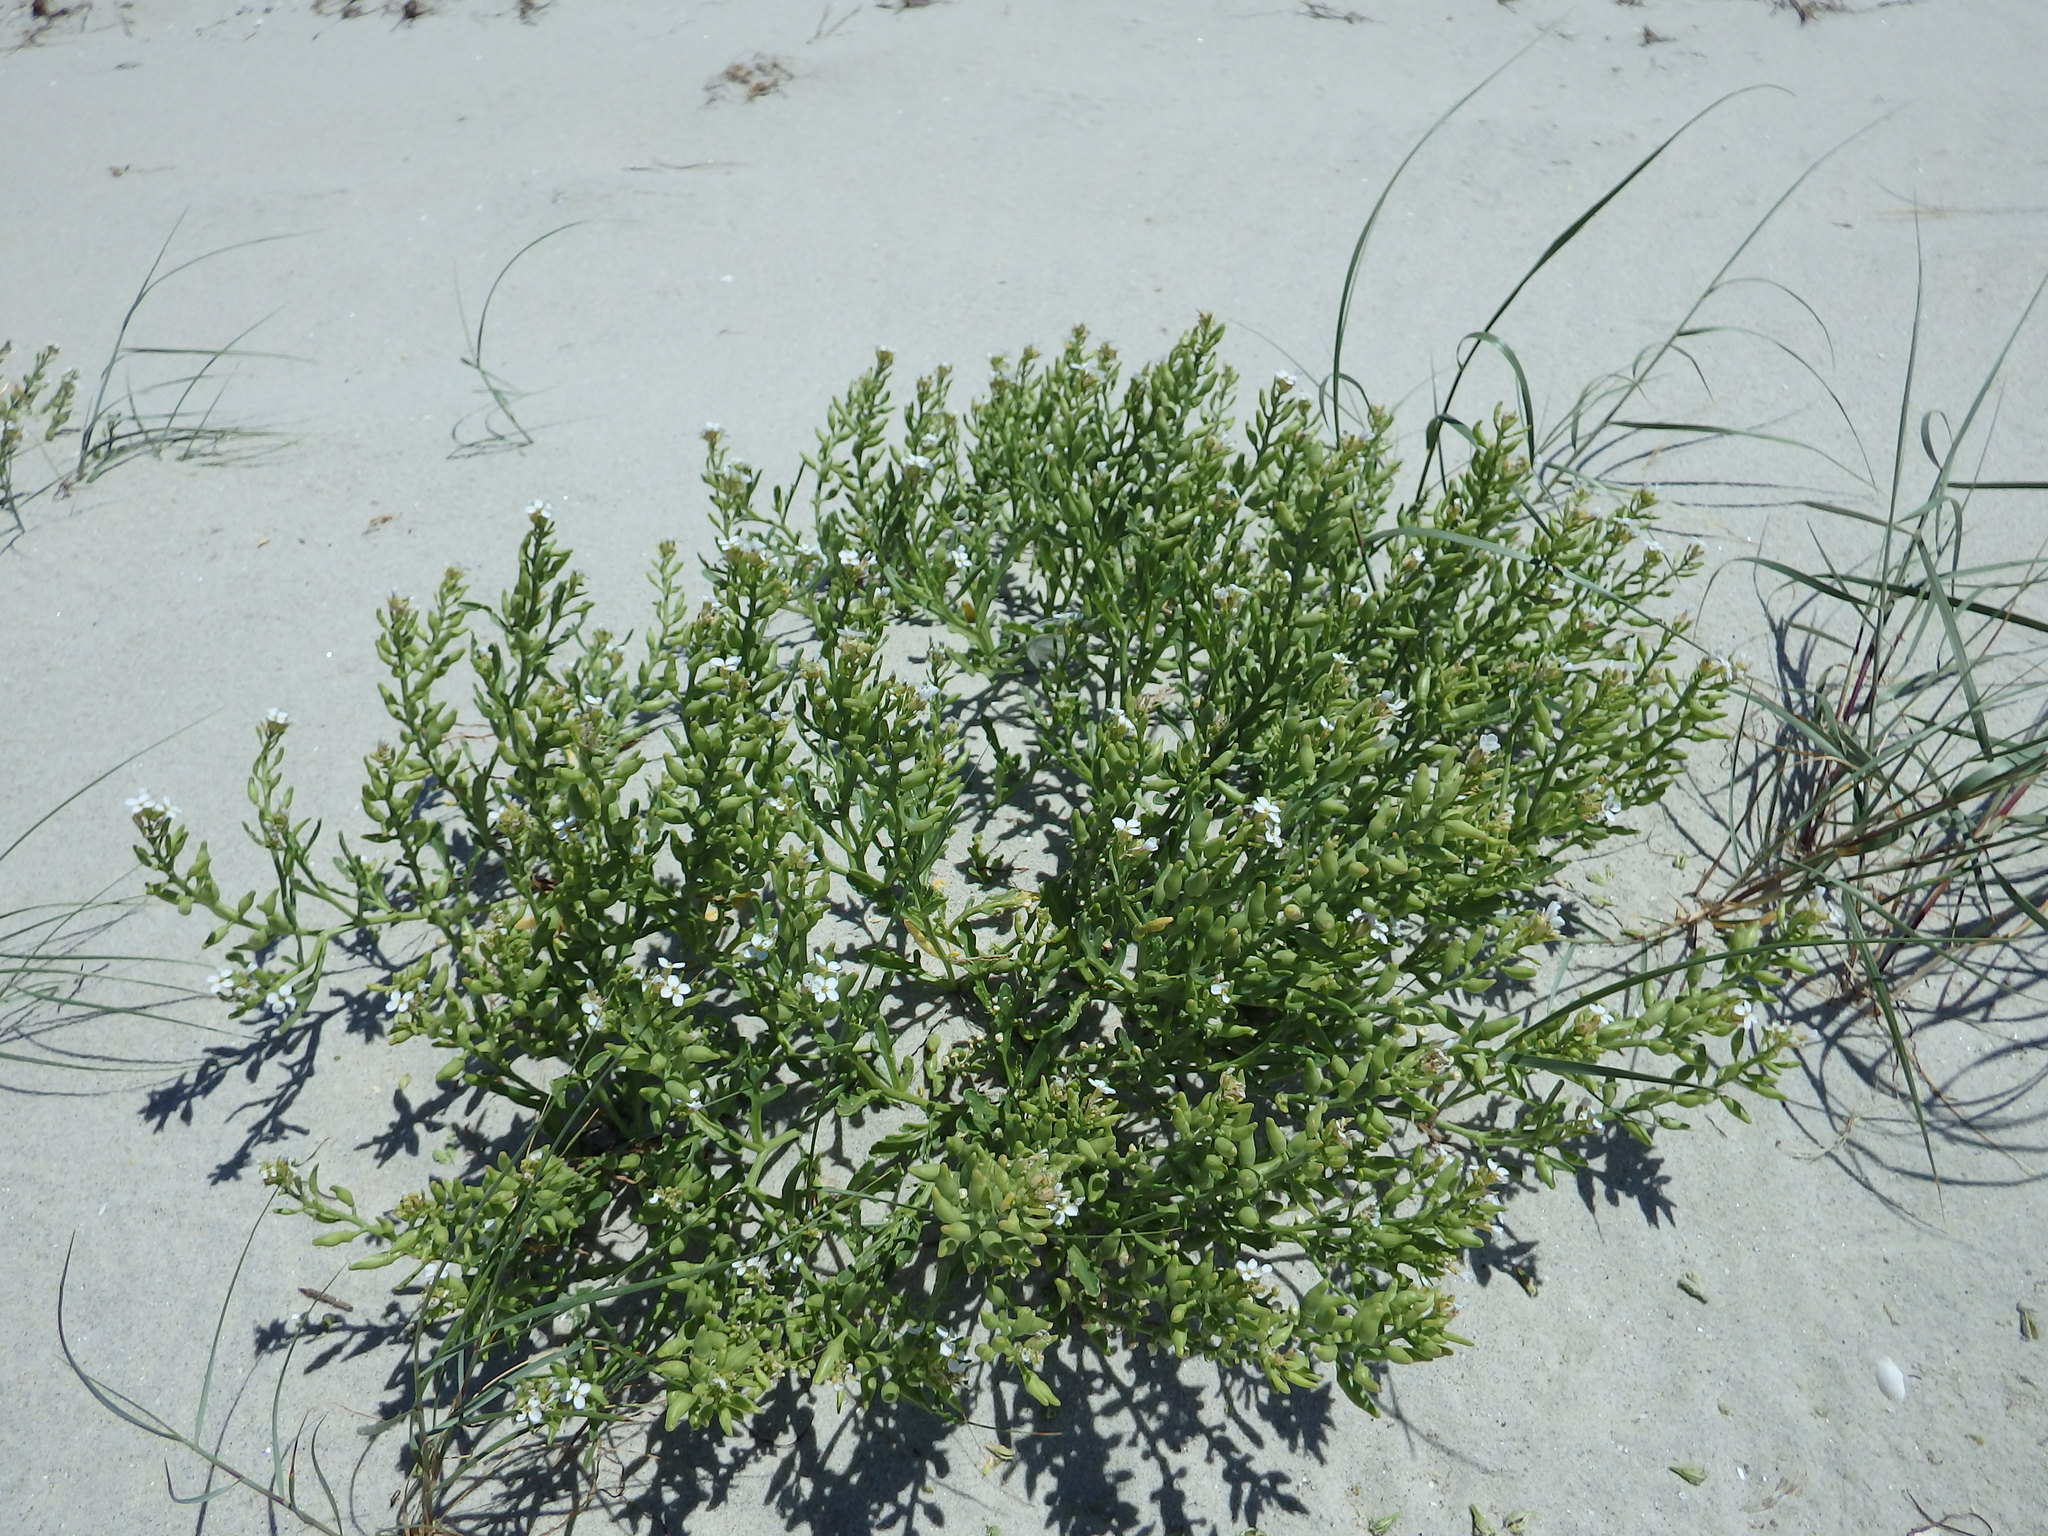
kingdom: Plantae
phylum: Tracheophyta
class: Magnoliopsida
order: Brassicales
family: Brassicaceae
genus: Cakile
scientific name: Cakile maritima
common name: Sea rocket
